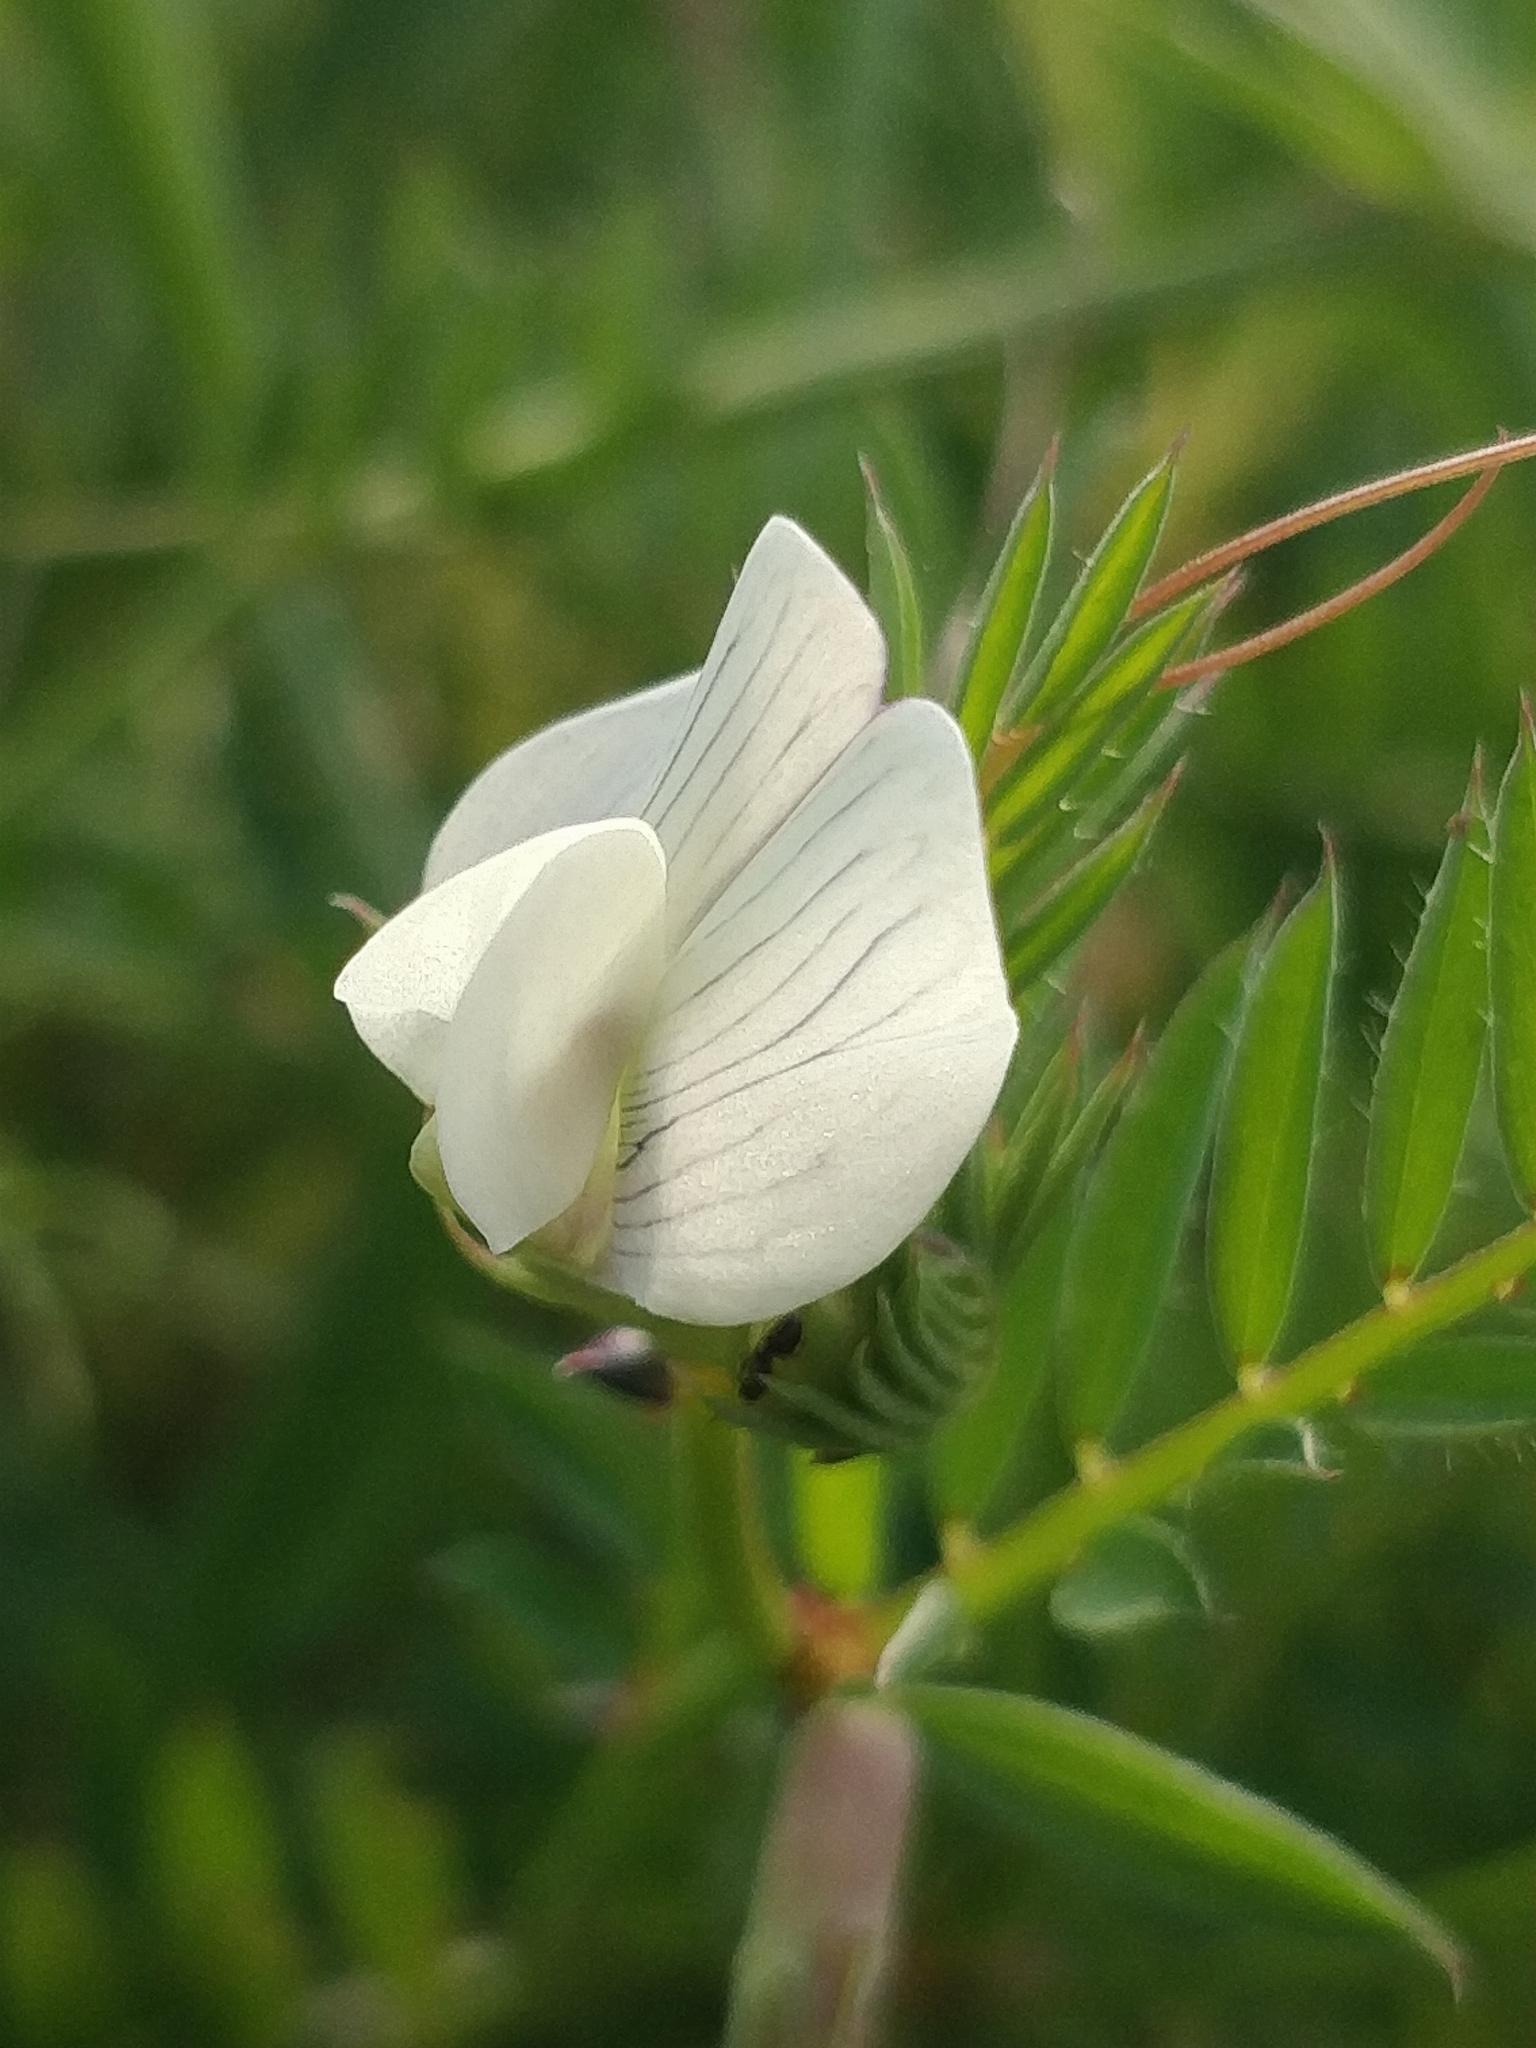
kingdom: Plantae
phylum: Tracheophyta
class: Magnoliopsida
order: Fabales
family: Fabaceae
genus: Vicia
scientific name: Vicia lutea
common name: Smooth yellow vetch
